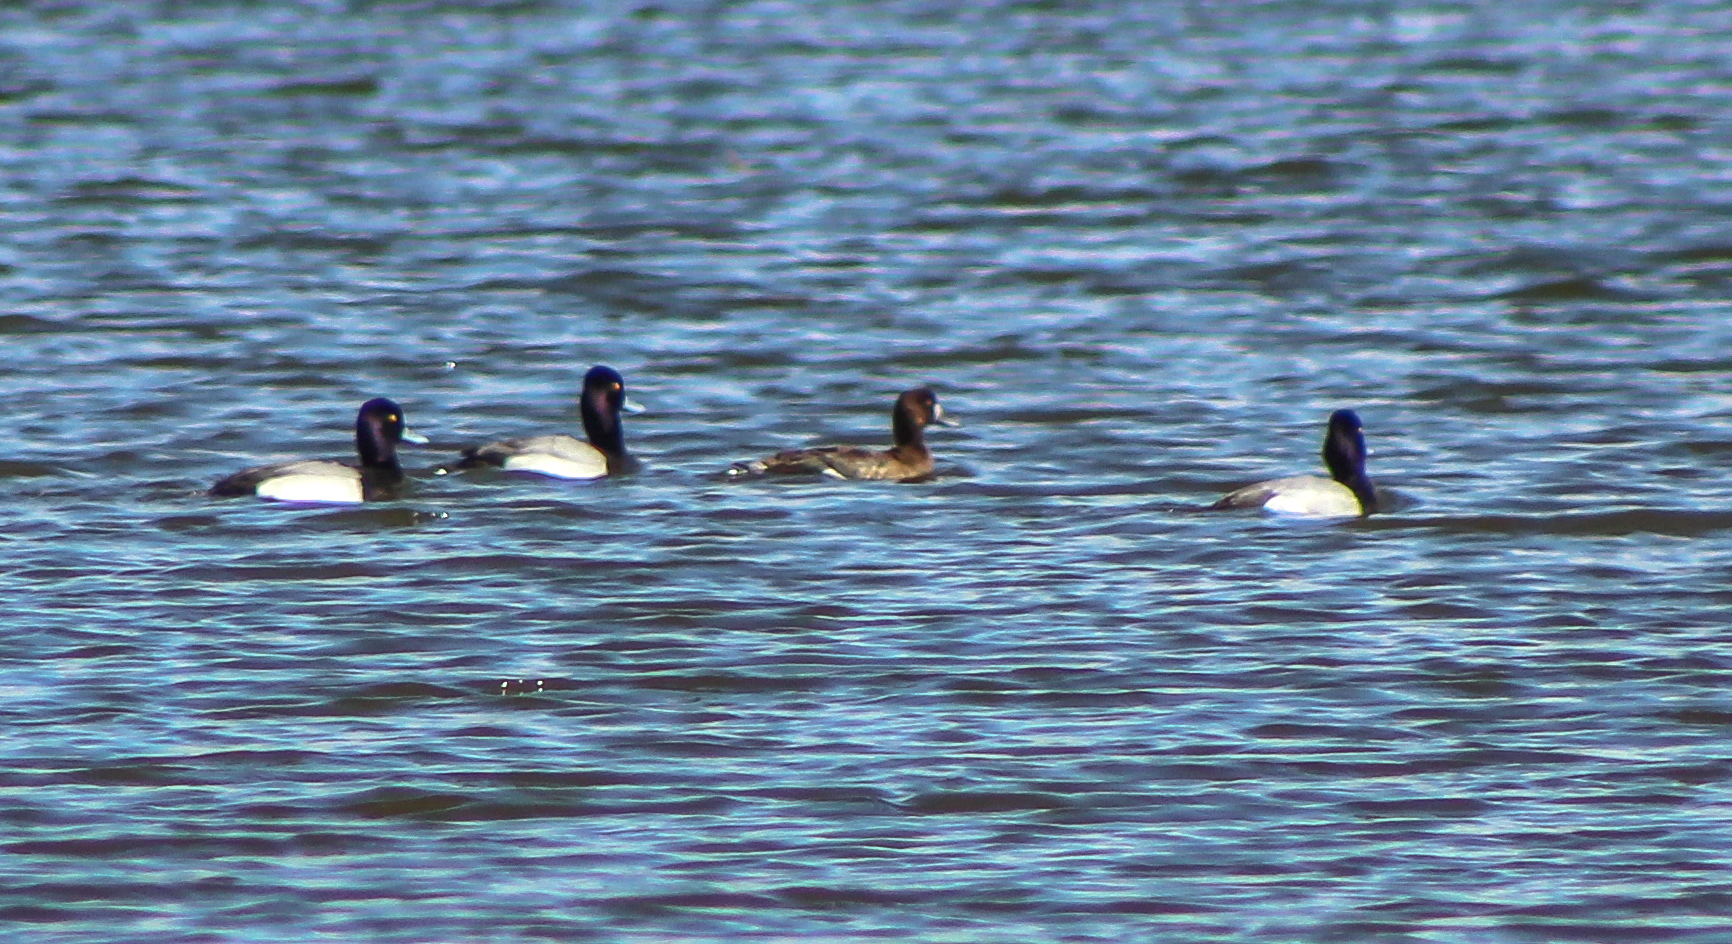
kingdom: Animalia
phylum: Chordata
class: Aves
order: Anseriformes
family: Anatidae
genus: Aythya
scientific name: Aythya affinis
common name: Lesser scaup
